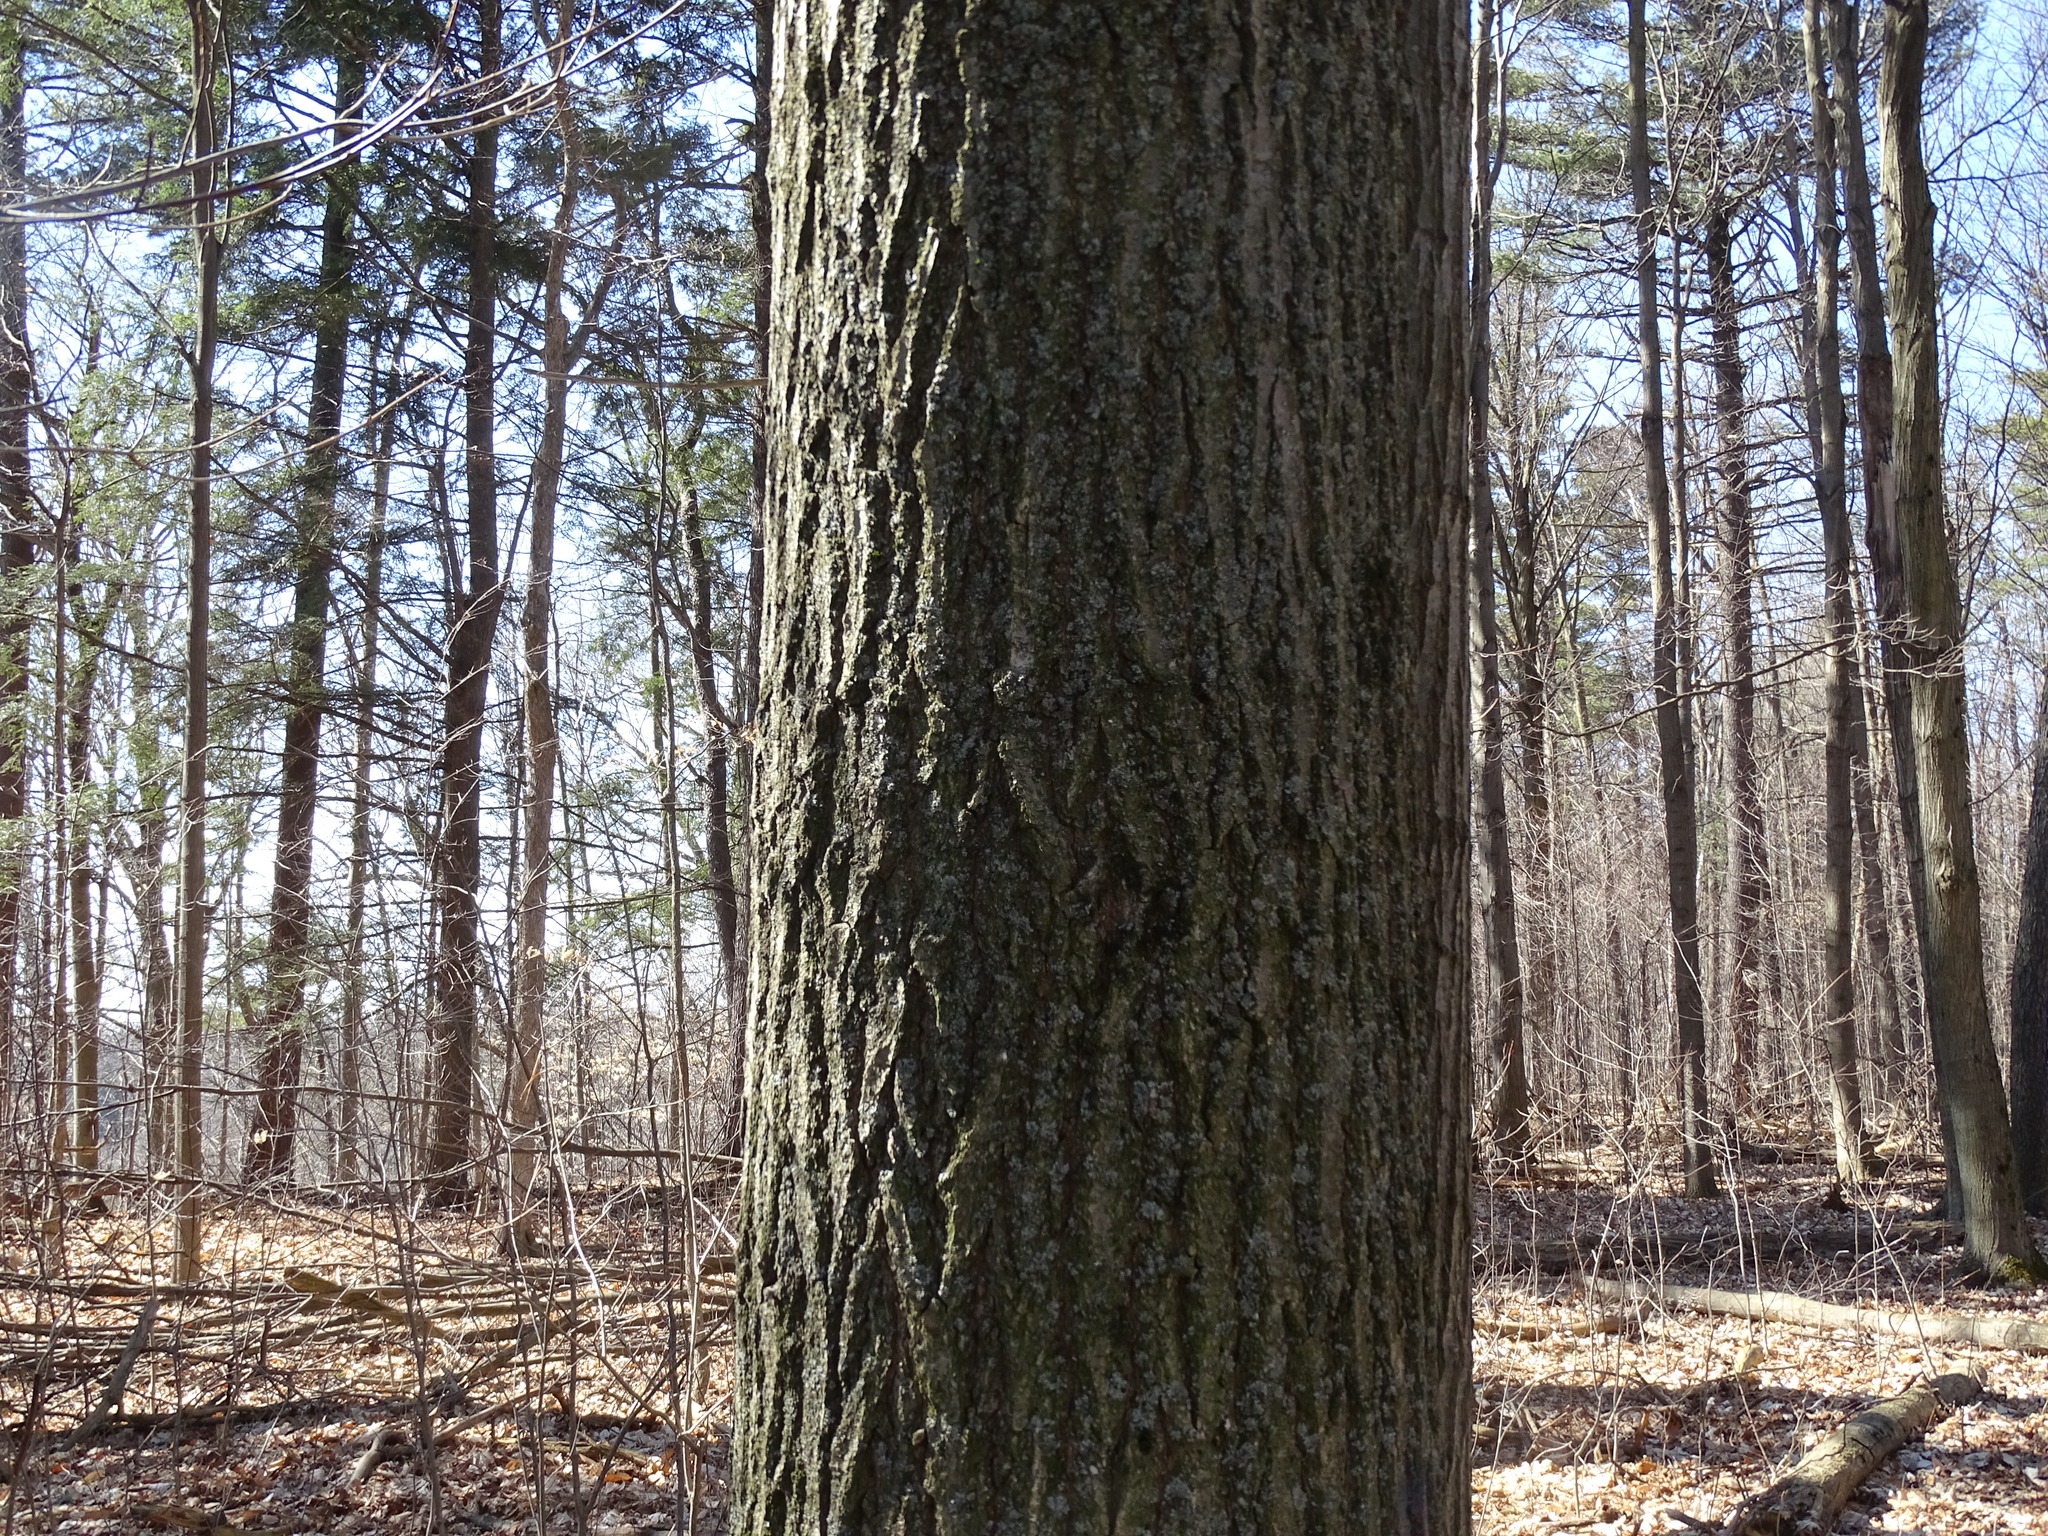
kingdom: Plantae
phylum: Tracheophyta
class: Magnoliopsida
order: Fagales
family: Fagaceae
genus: Quercus
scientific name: Quercus rubra
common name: Red oak
